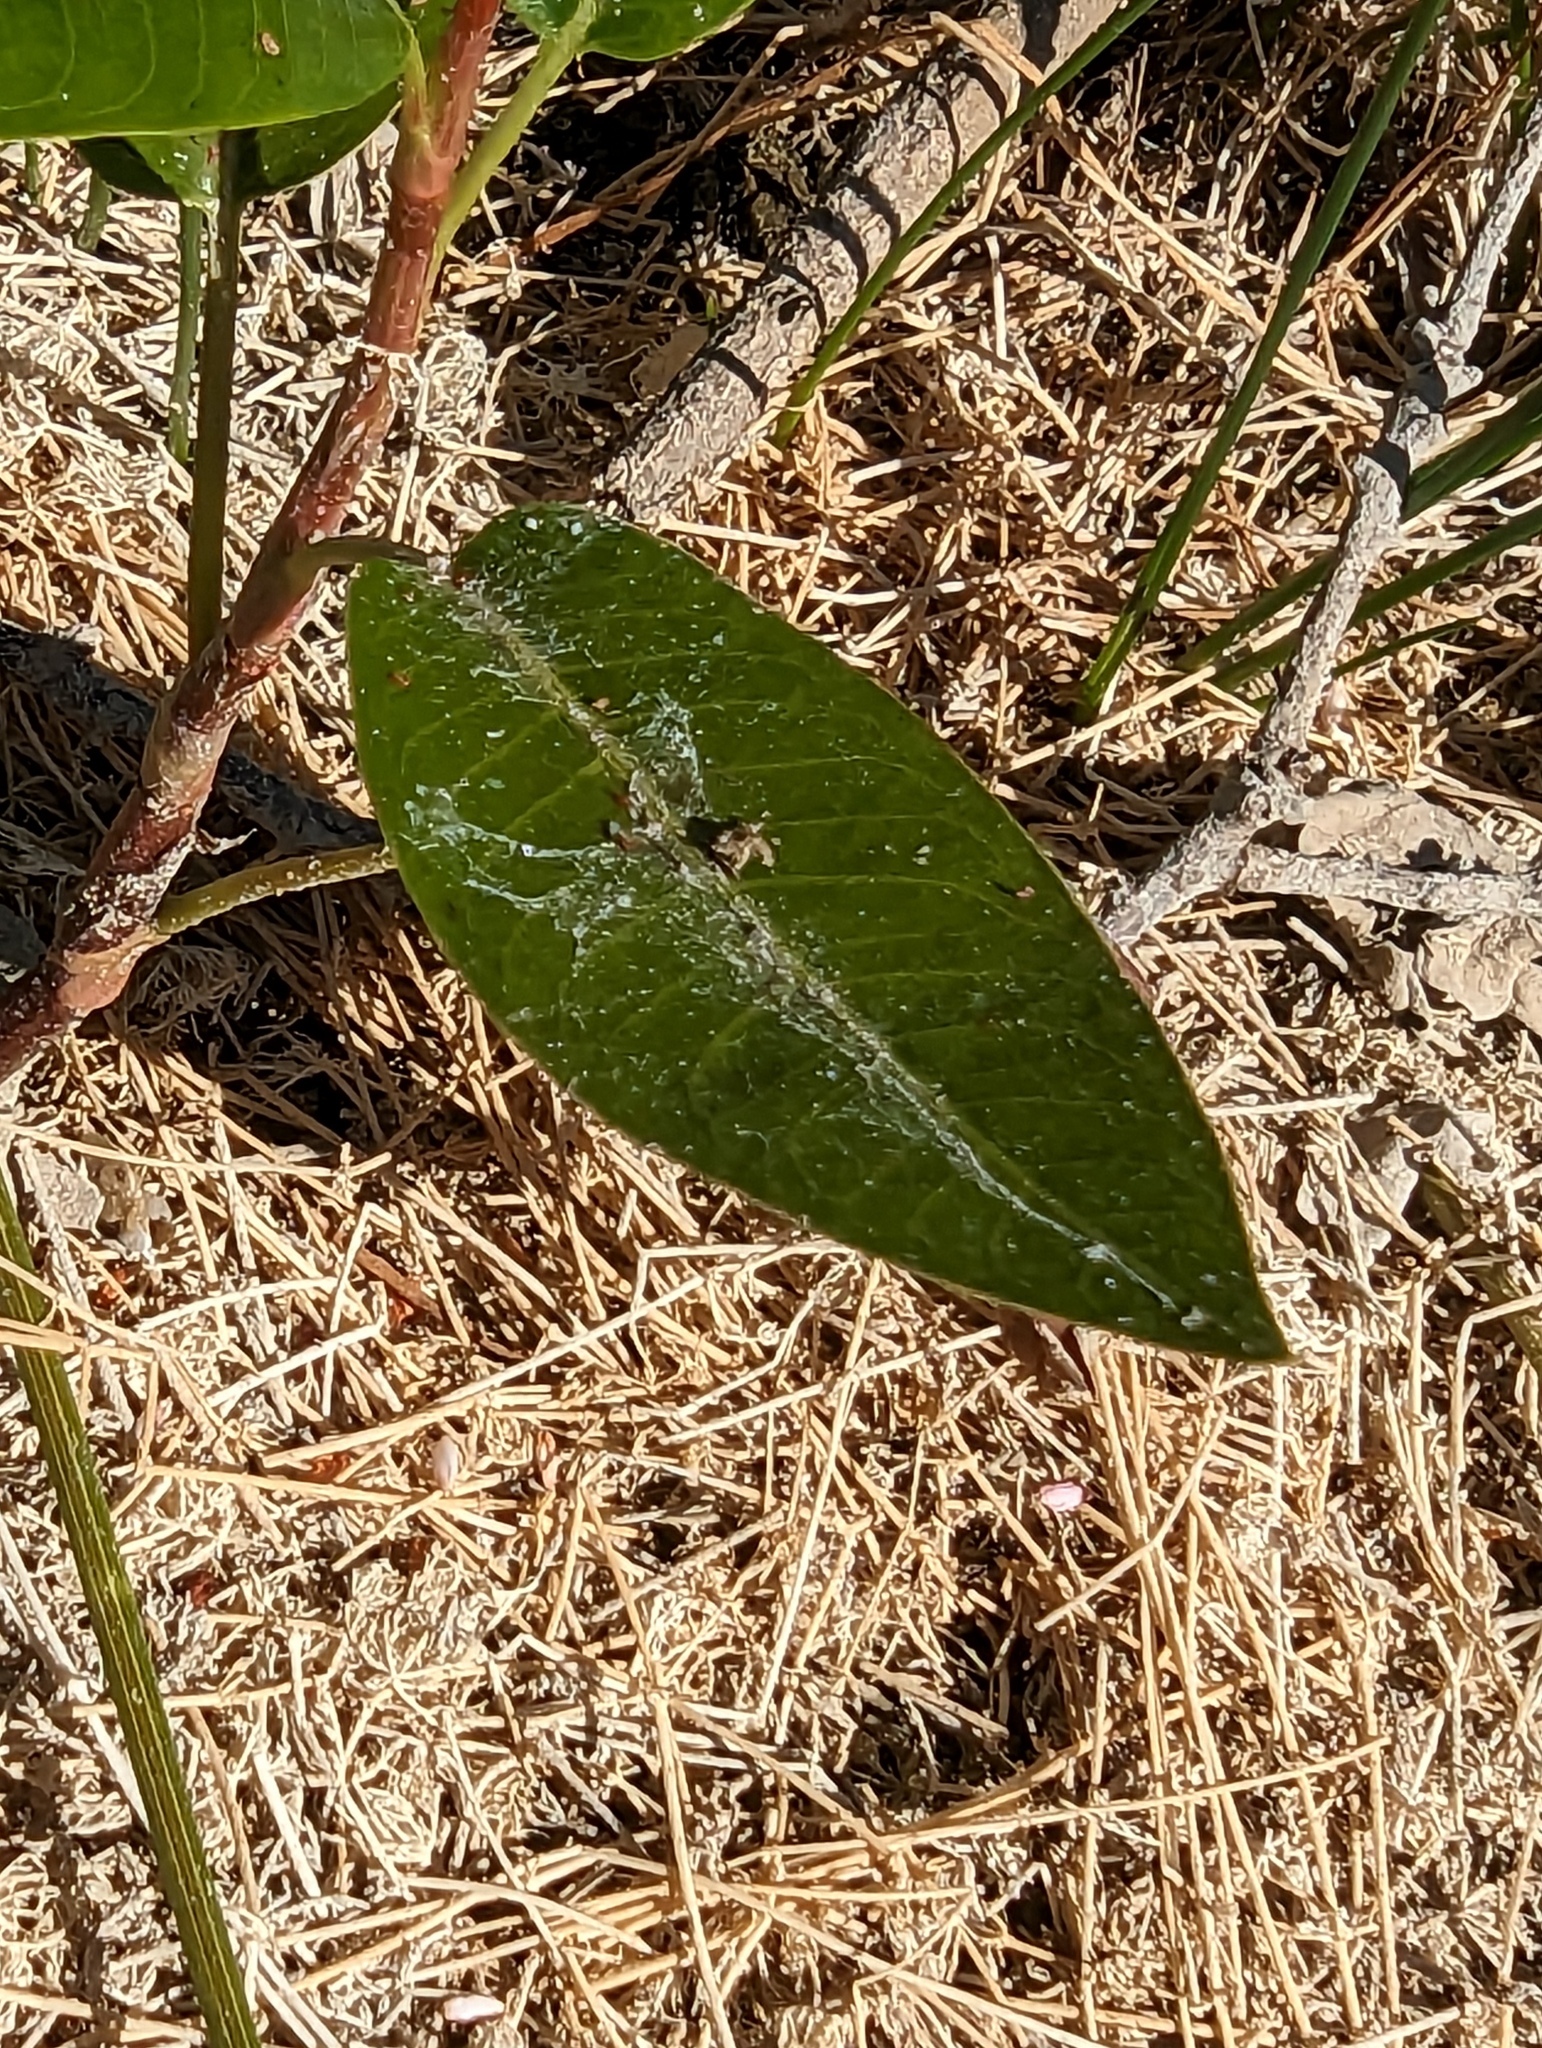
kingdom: Plantae
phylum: Tracheophyta
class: Magnoliopsida
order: Caryophyllales
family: Polygonaceae
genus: Persicaria
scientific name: Persicaria amphibia
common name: Amphibious bistort
